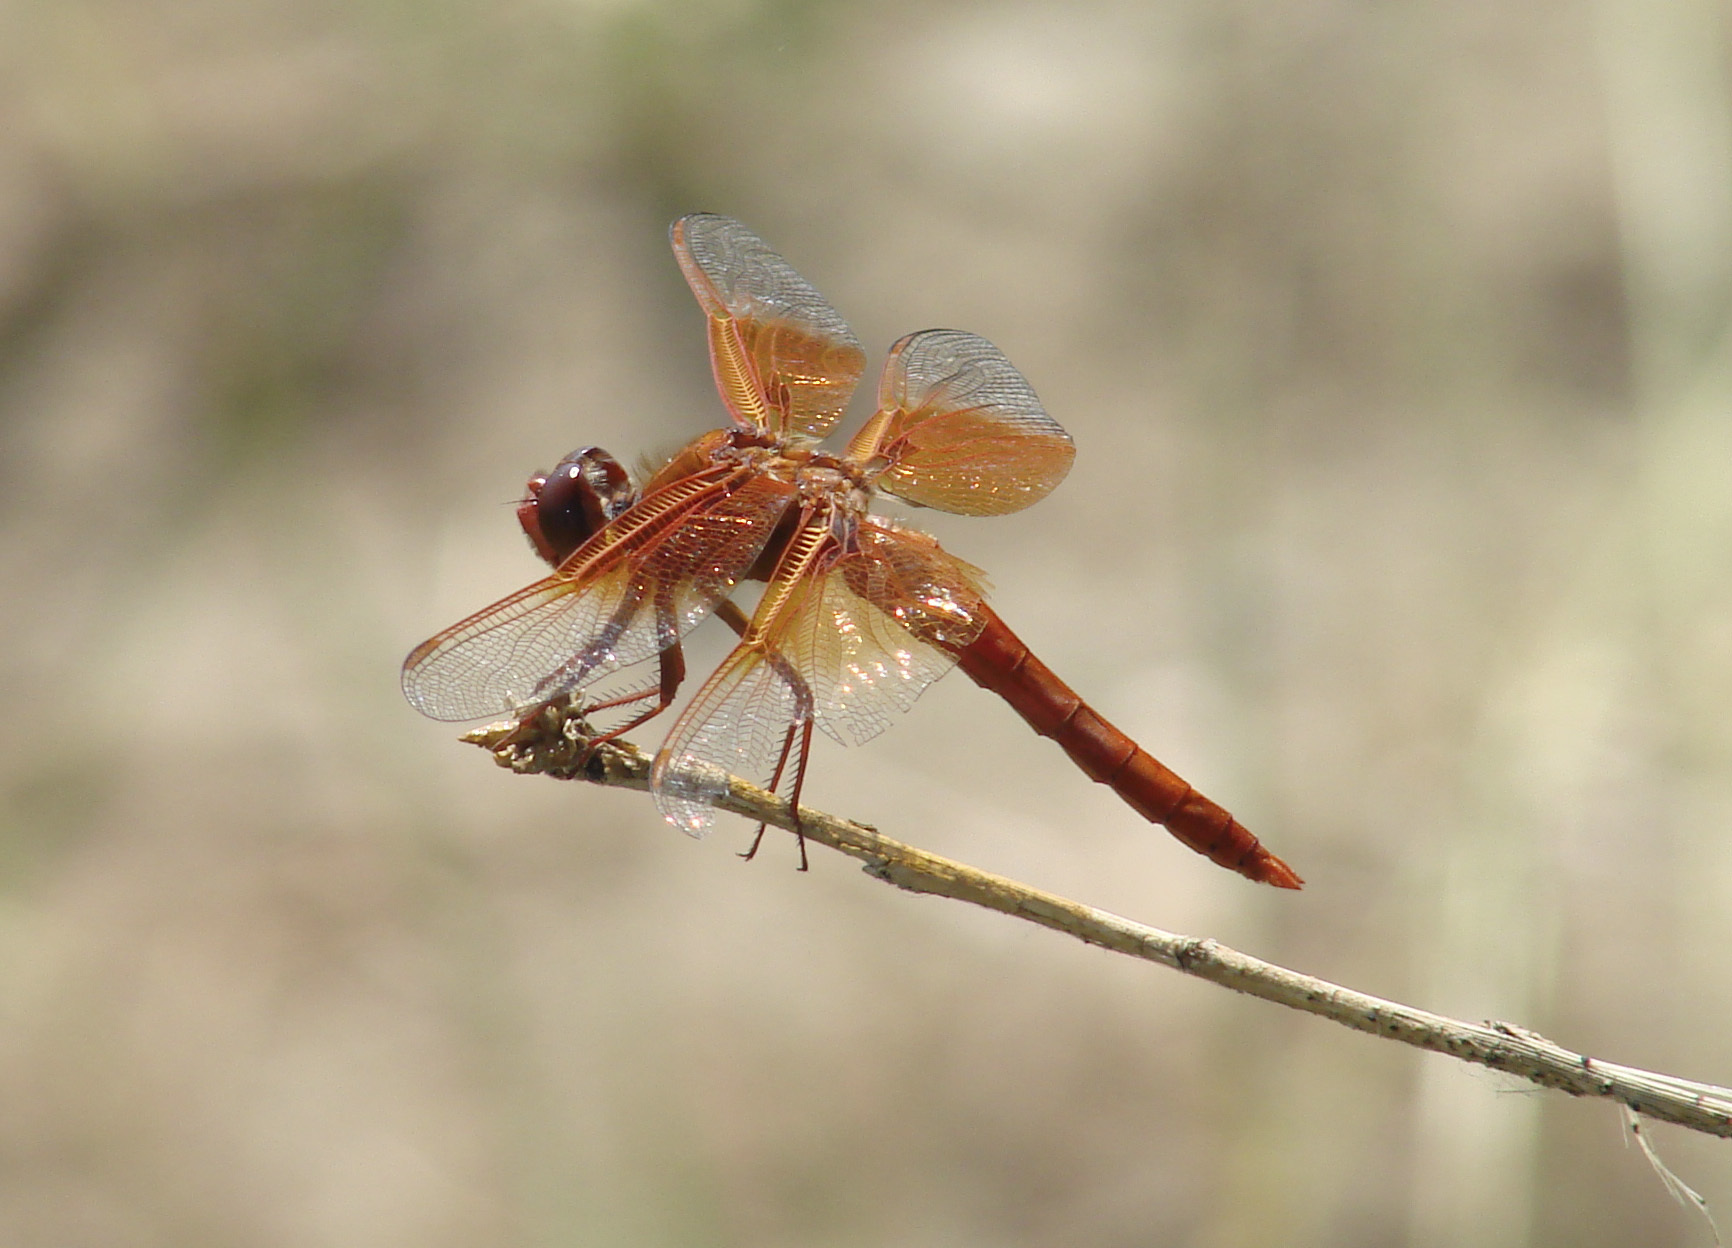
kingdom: Animalia
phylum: Arthropoda
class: Insecta
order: Odonata
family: Libellulidae
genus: Libellula
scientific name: Libellula saturata
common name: Flame skimmer
